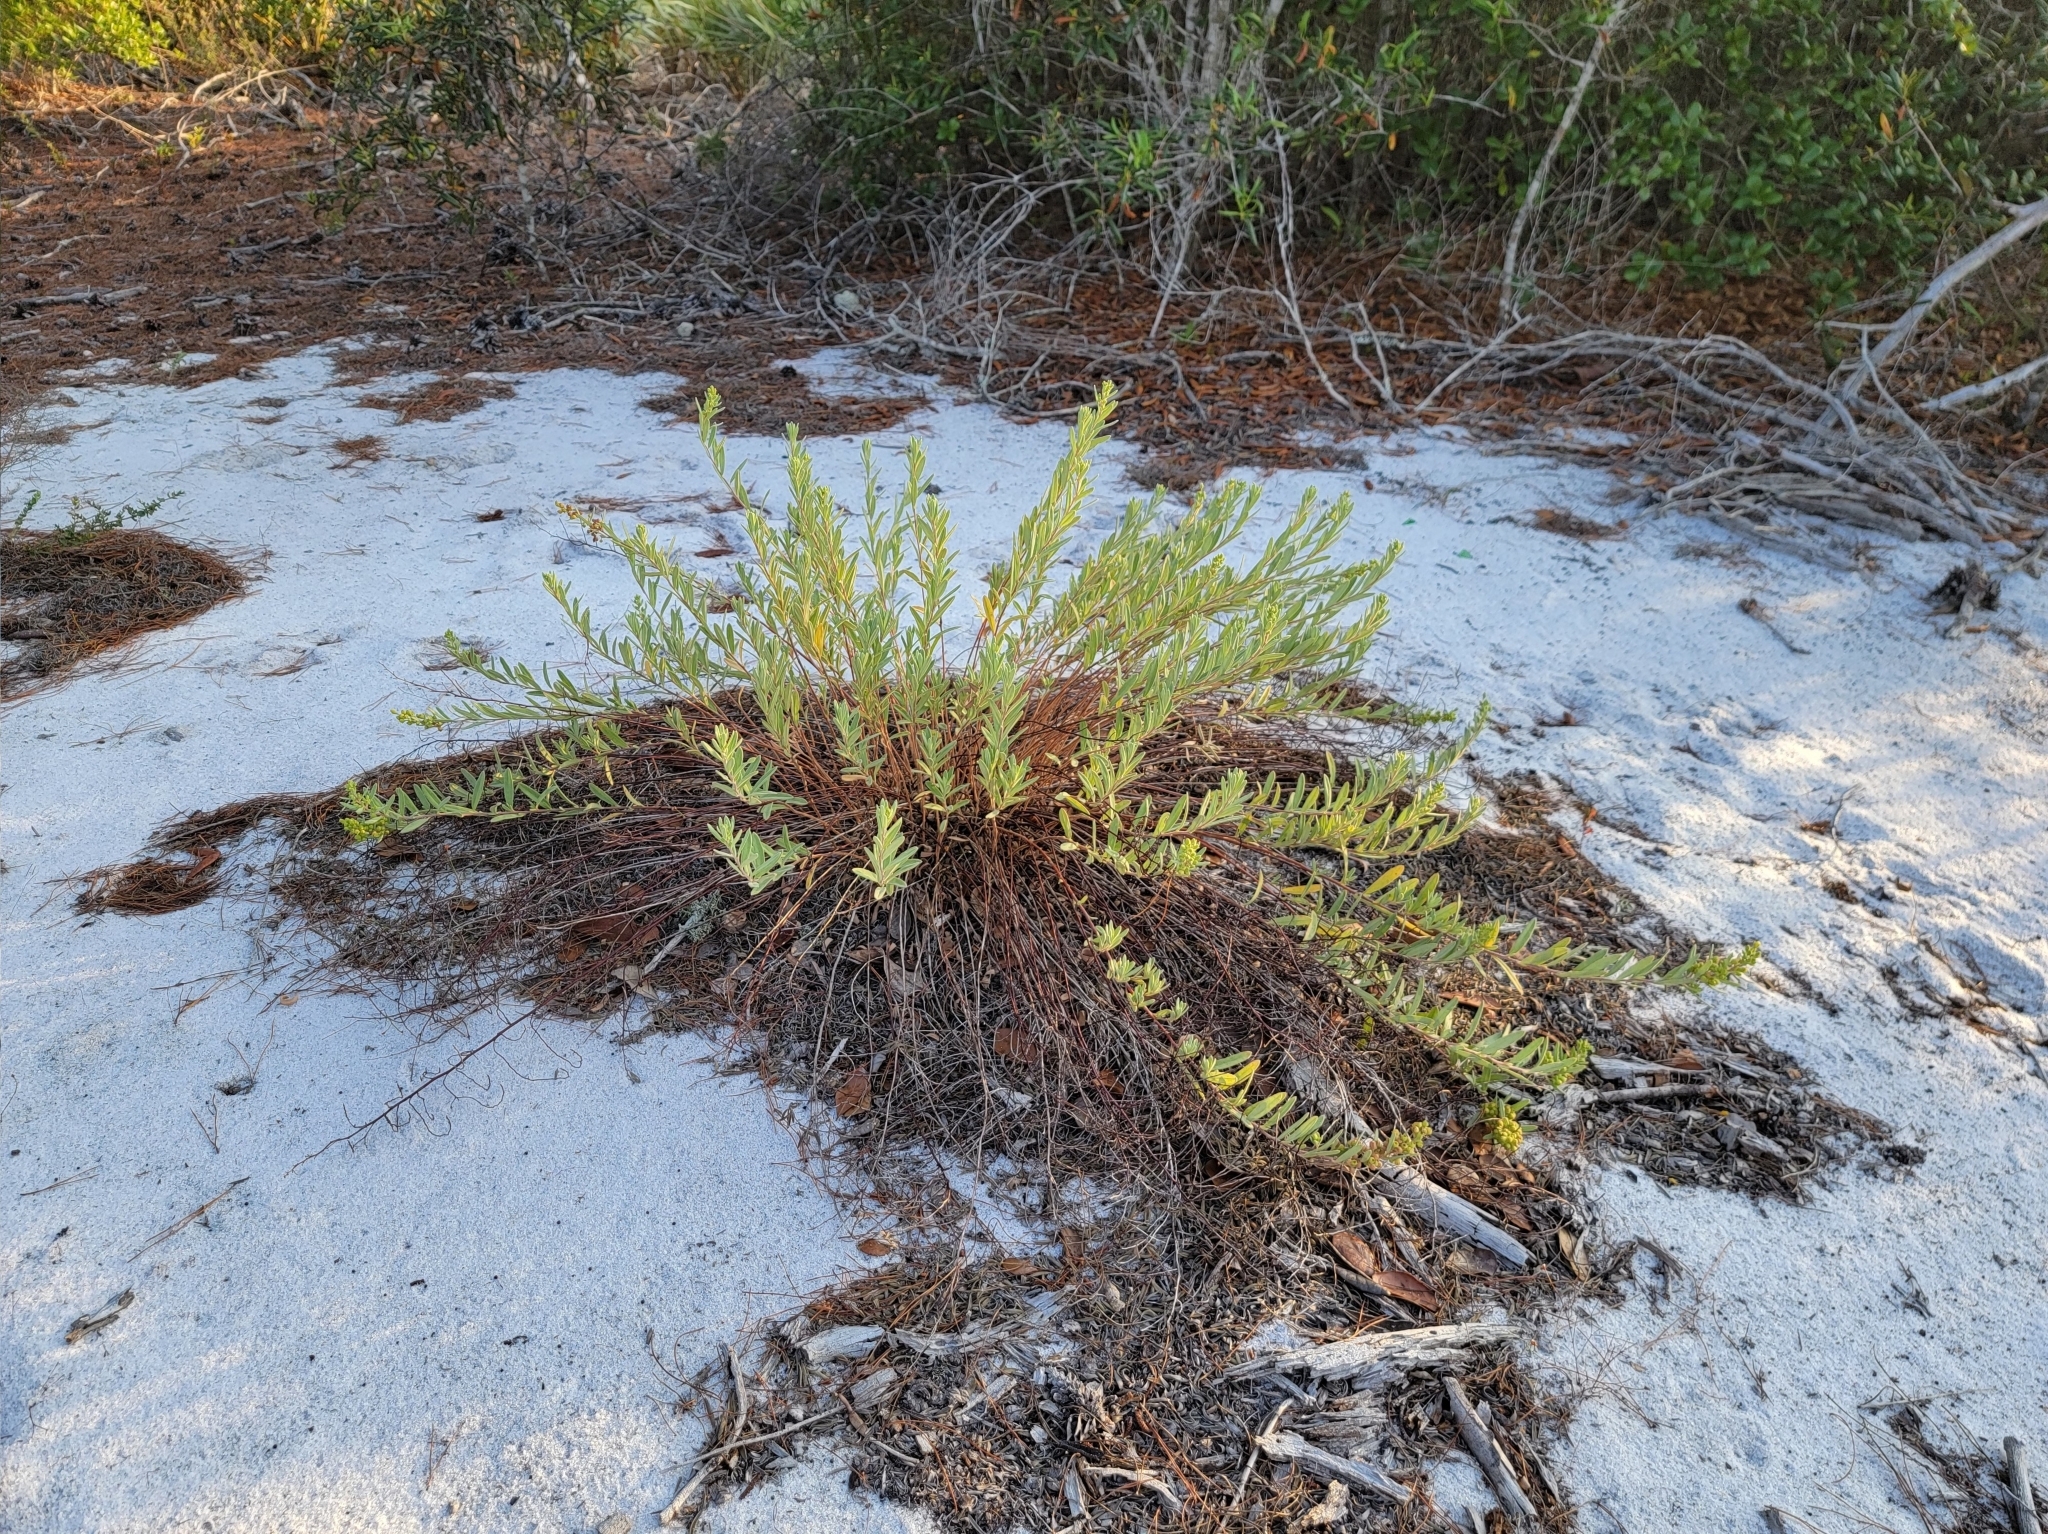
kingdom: Plantae
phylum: Tracheophyta
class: Magnoliopsida
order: Malvales
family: Cistaceae
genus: Crocanthemum
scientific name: Crocanthemum nashii
